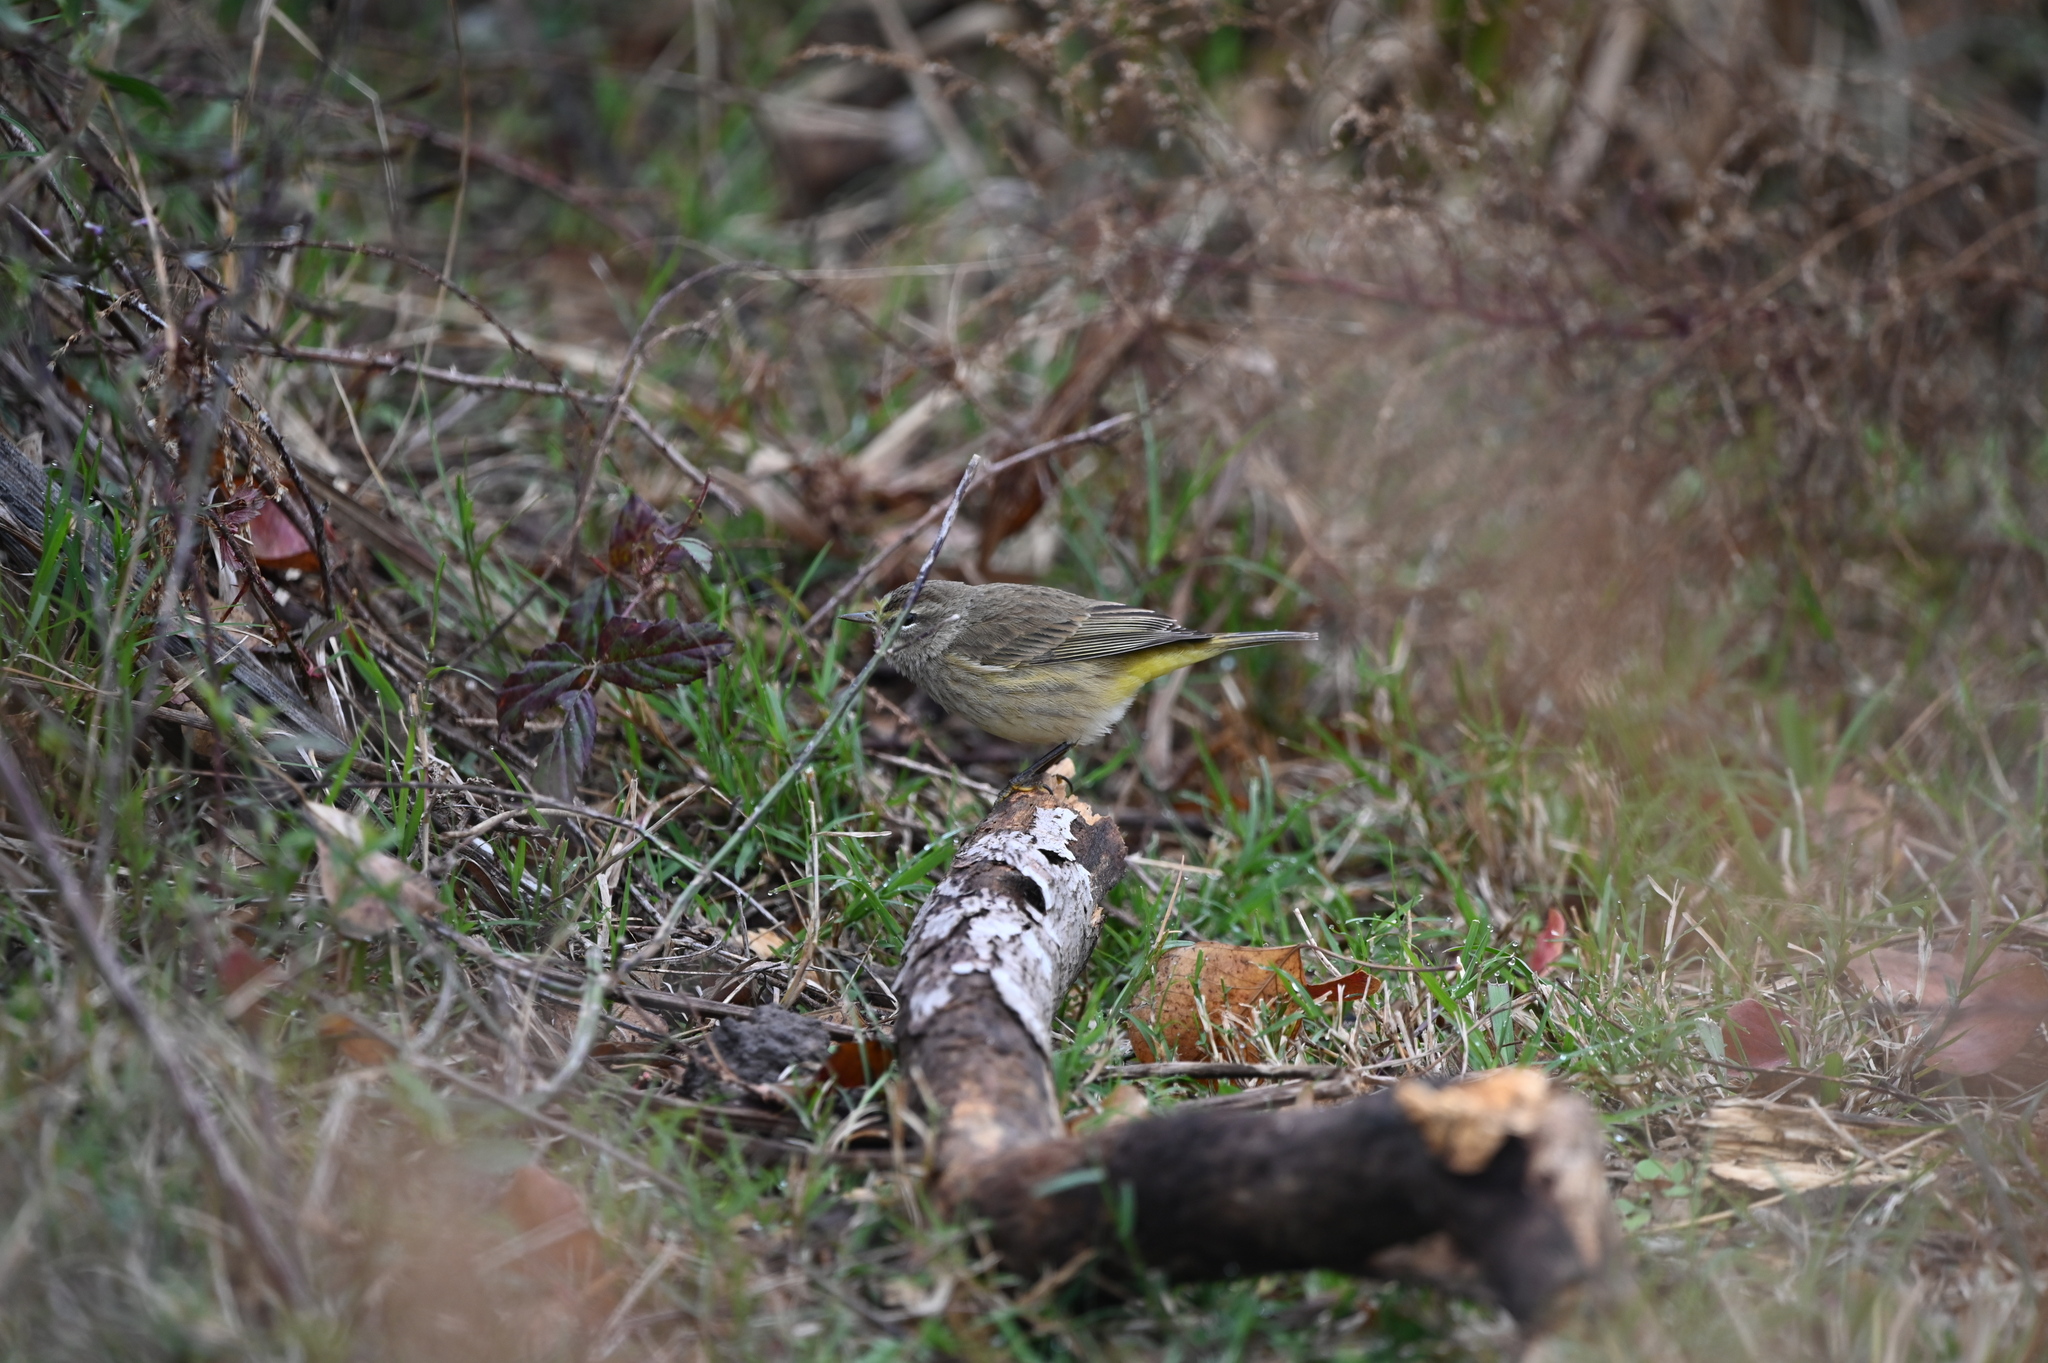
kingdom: Animalia
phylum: Chordata
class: Aves
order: Passeriformes
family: Parulidae
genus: Setophaga
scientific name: Setophaga palmarum
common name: Palm warbler
